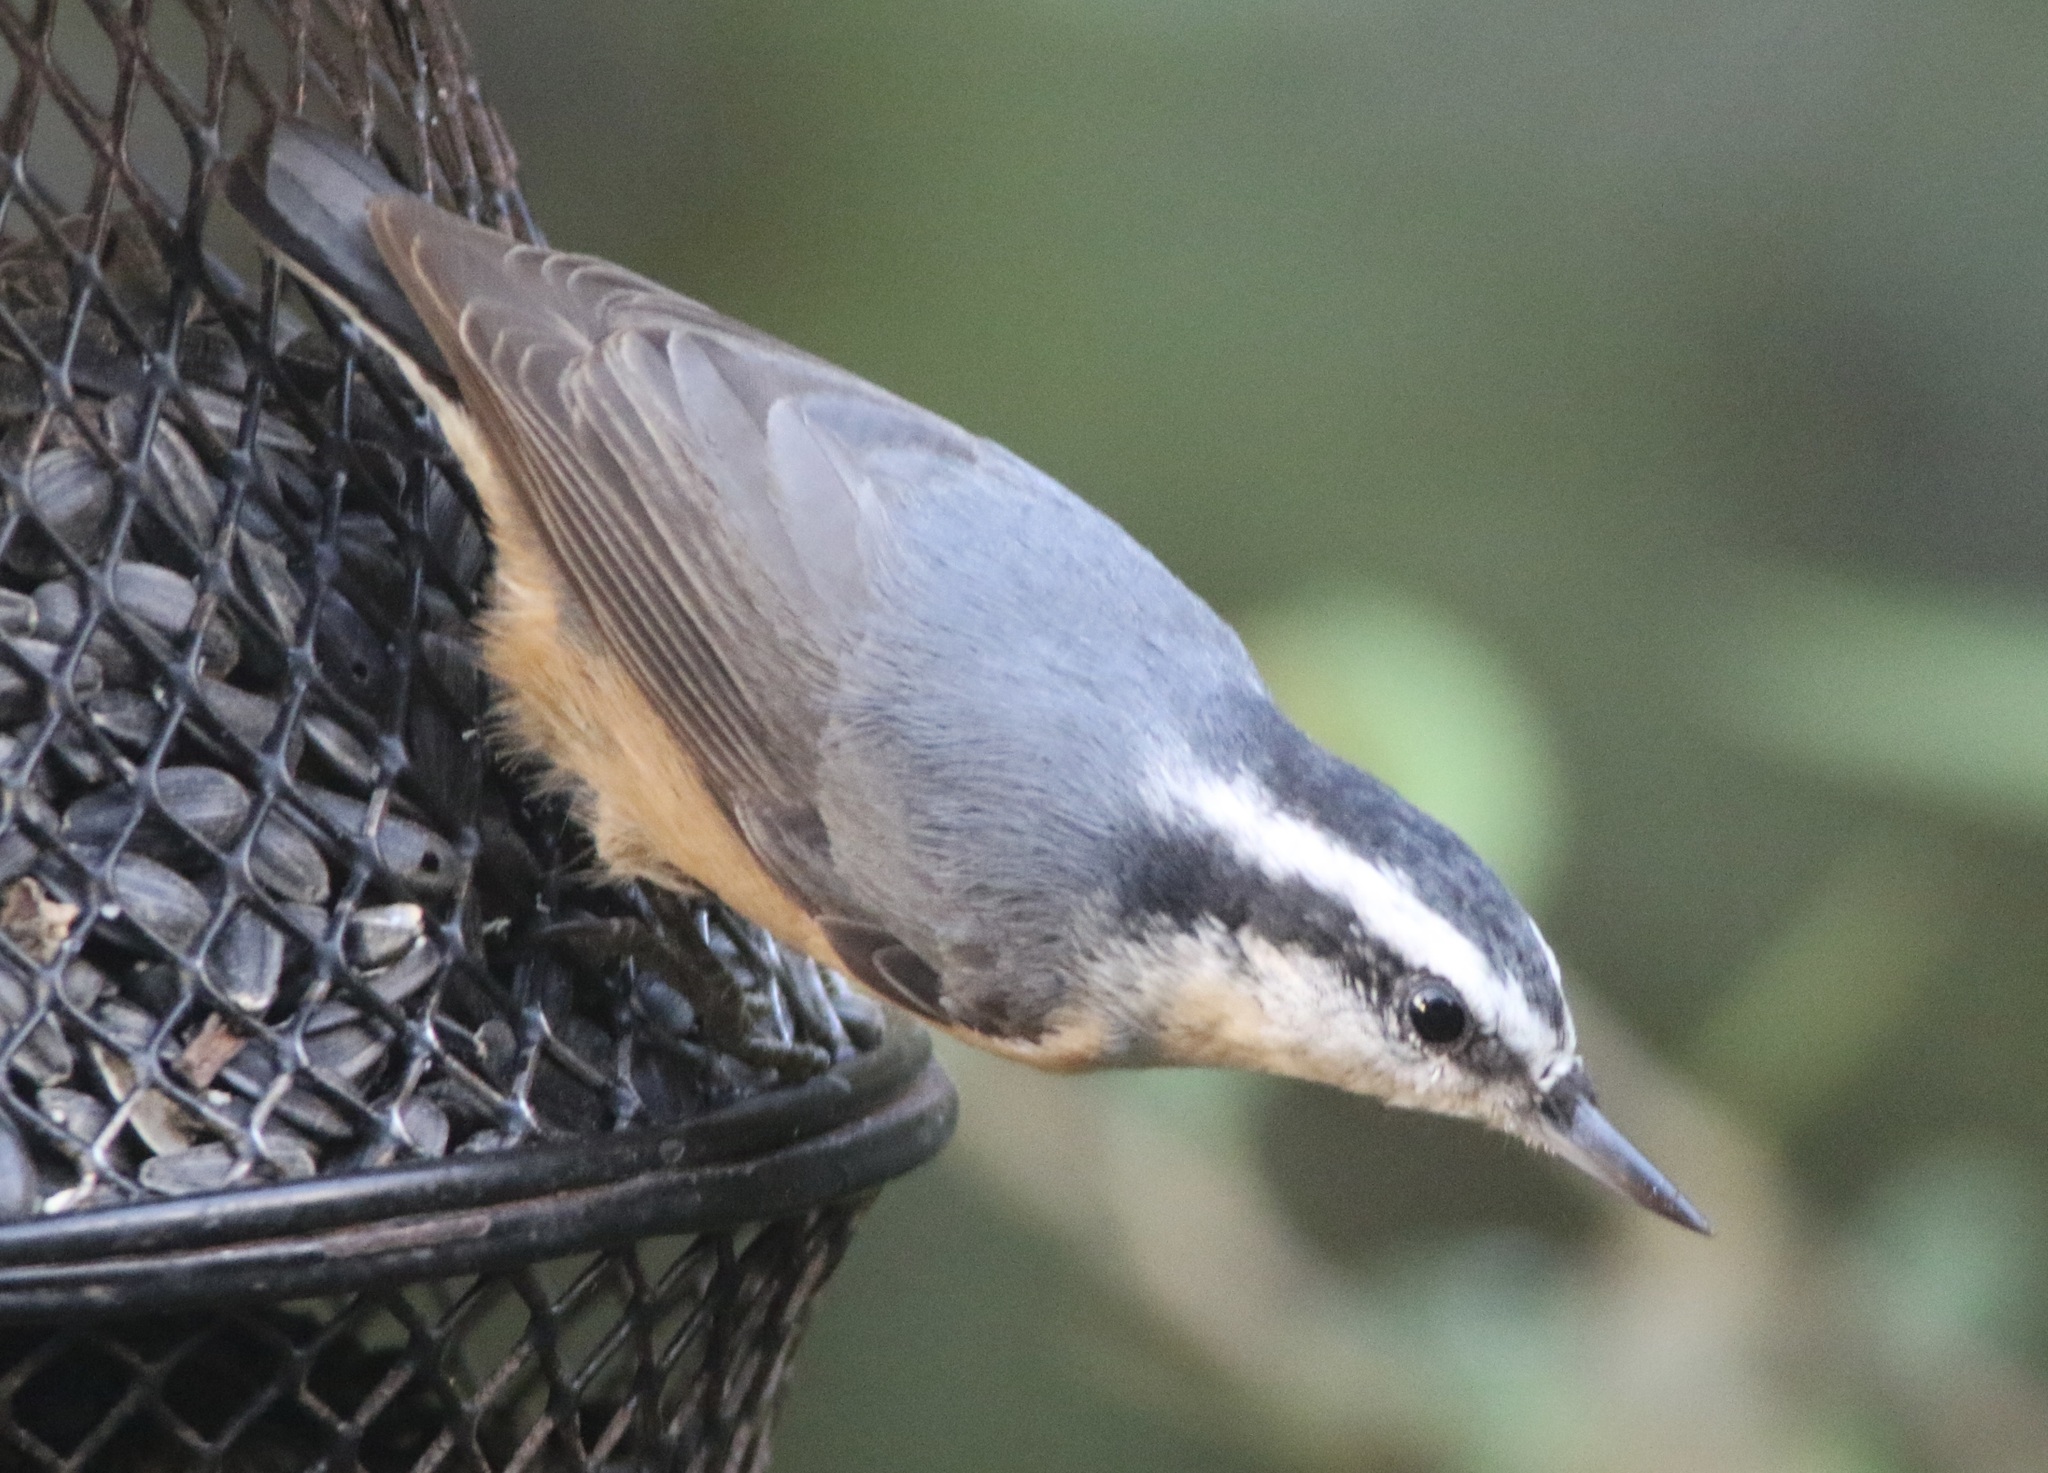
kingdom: Animalia
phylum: Chordata
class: Aves
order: Passeriformes
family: Sittidae
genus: Sitta
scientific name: Sitta canadensis
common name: Red-breasted nuthatch
